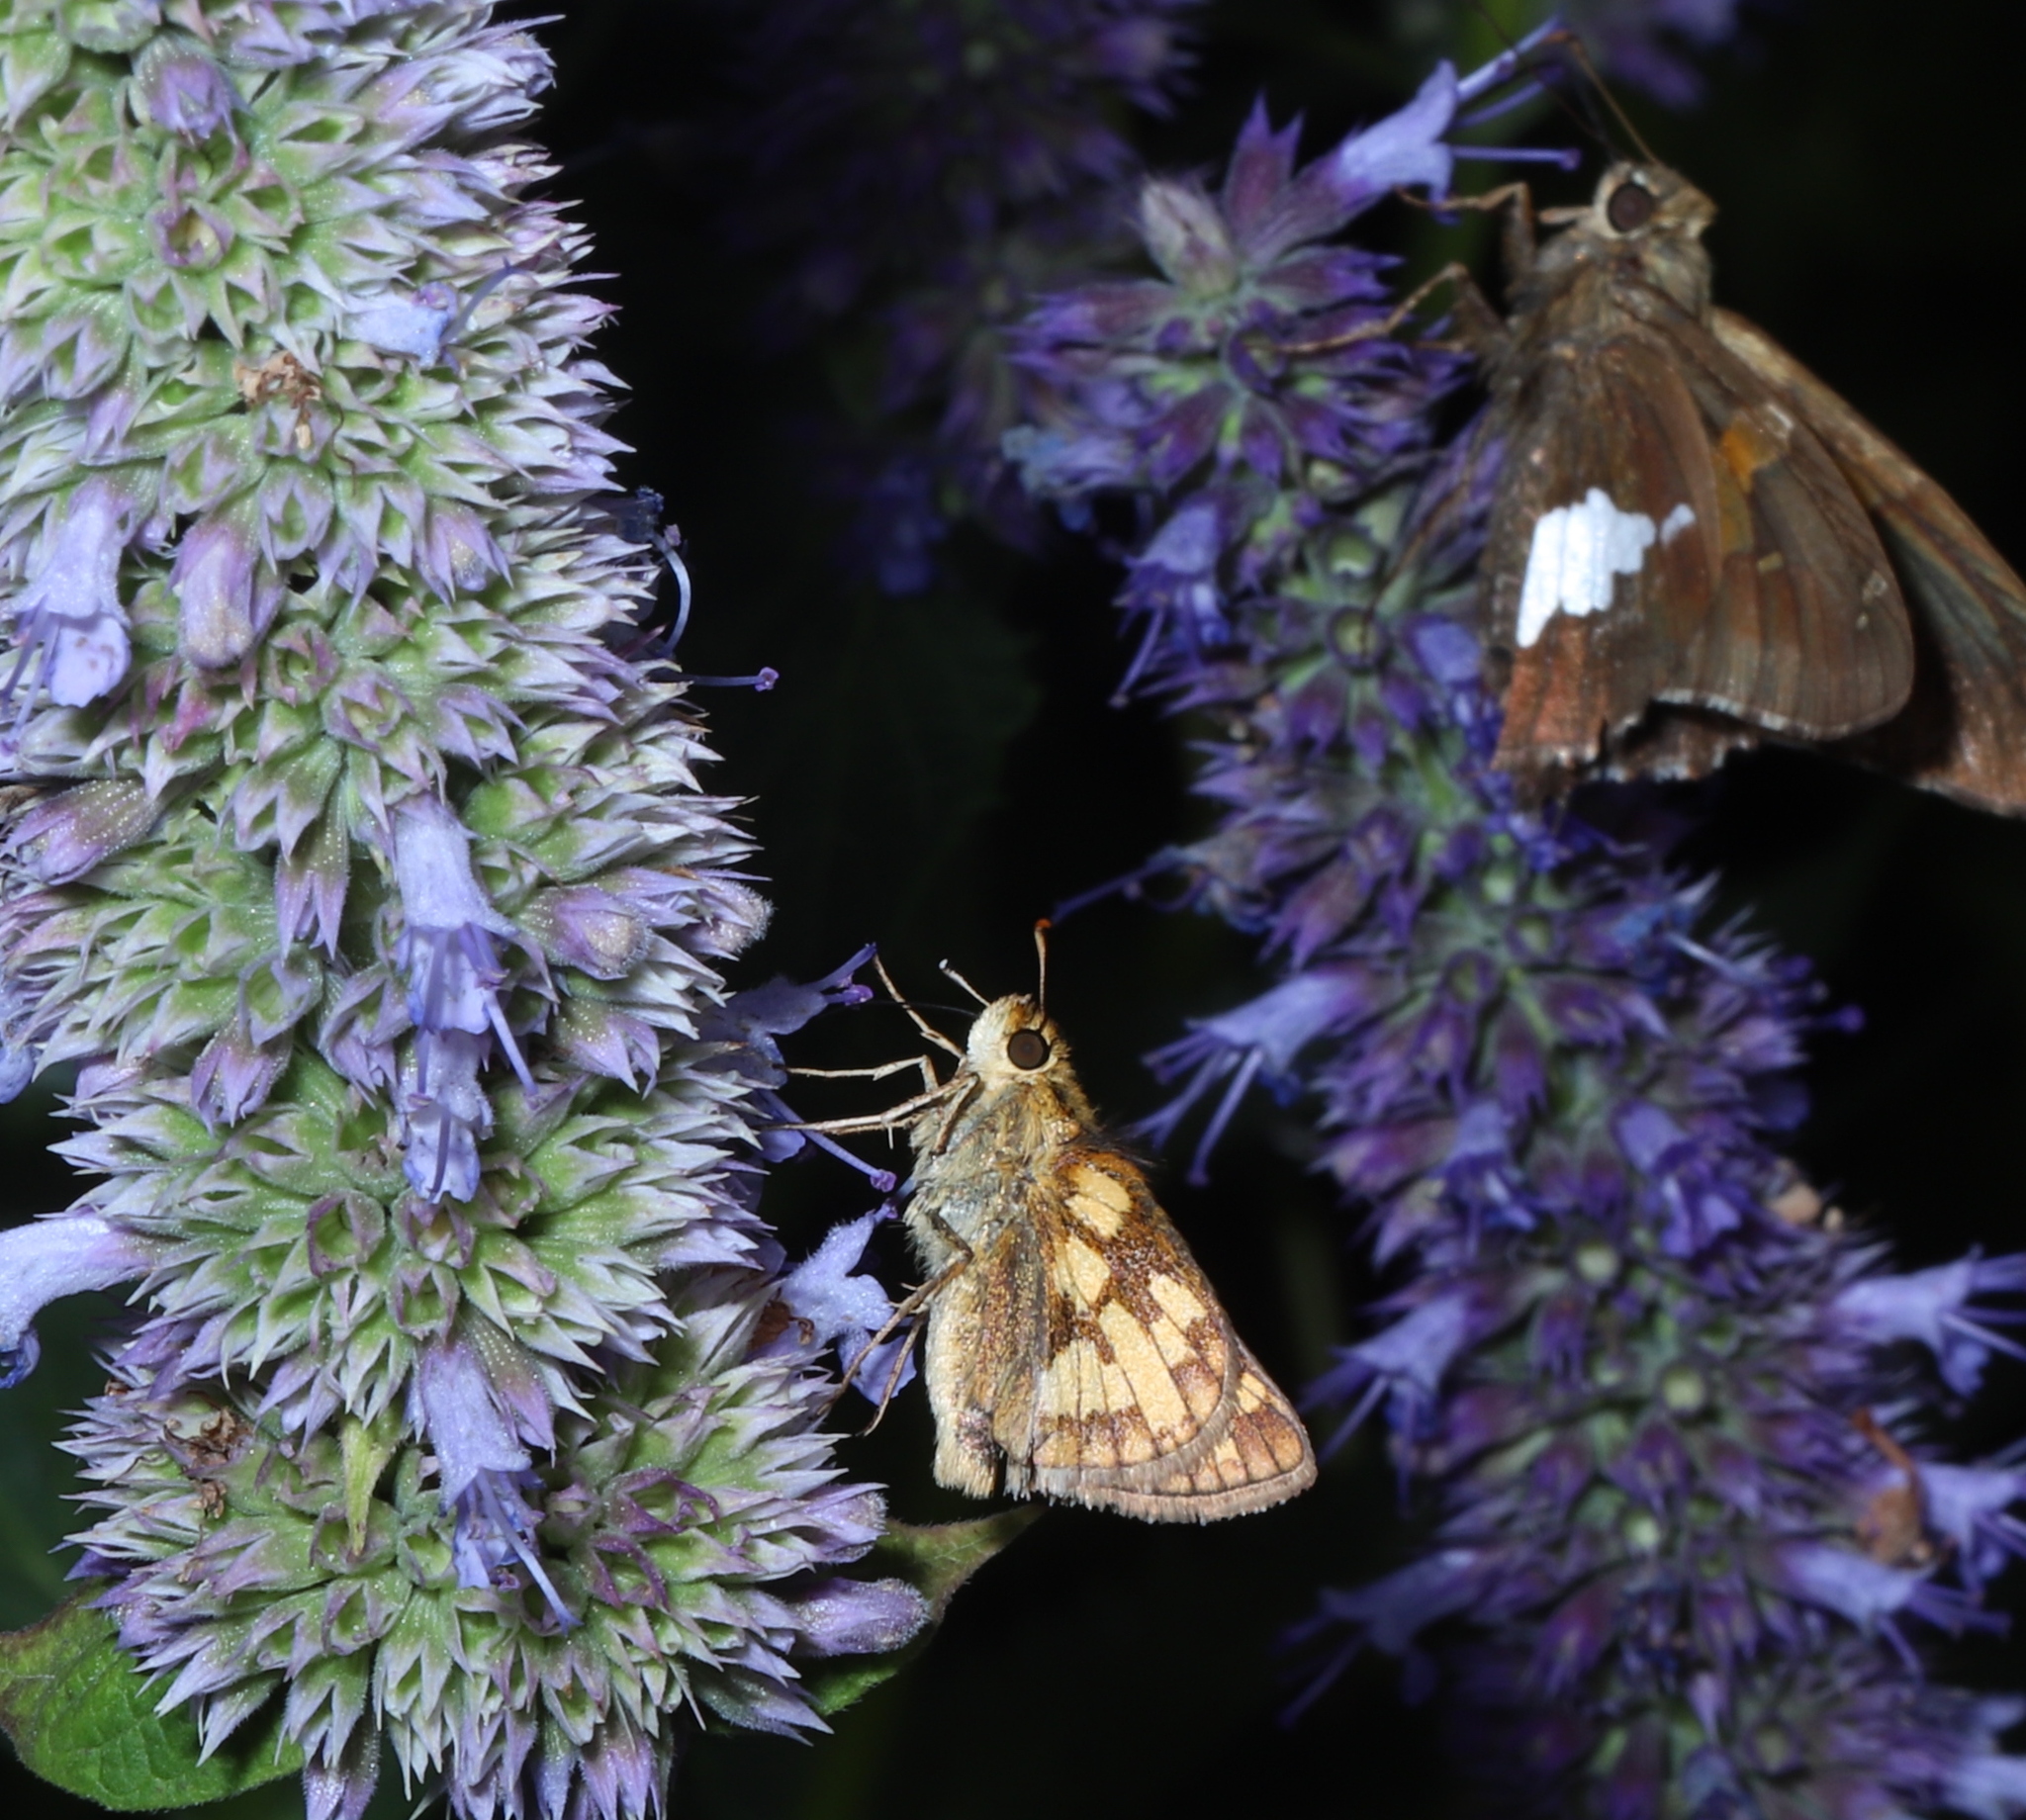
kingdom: Animalia
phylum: Arthropoda
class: Insecta
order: Lepidoptera
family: Hesperiidae
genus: Polites
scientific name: Polites coras
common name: Peck's skipper
